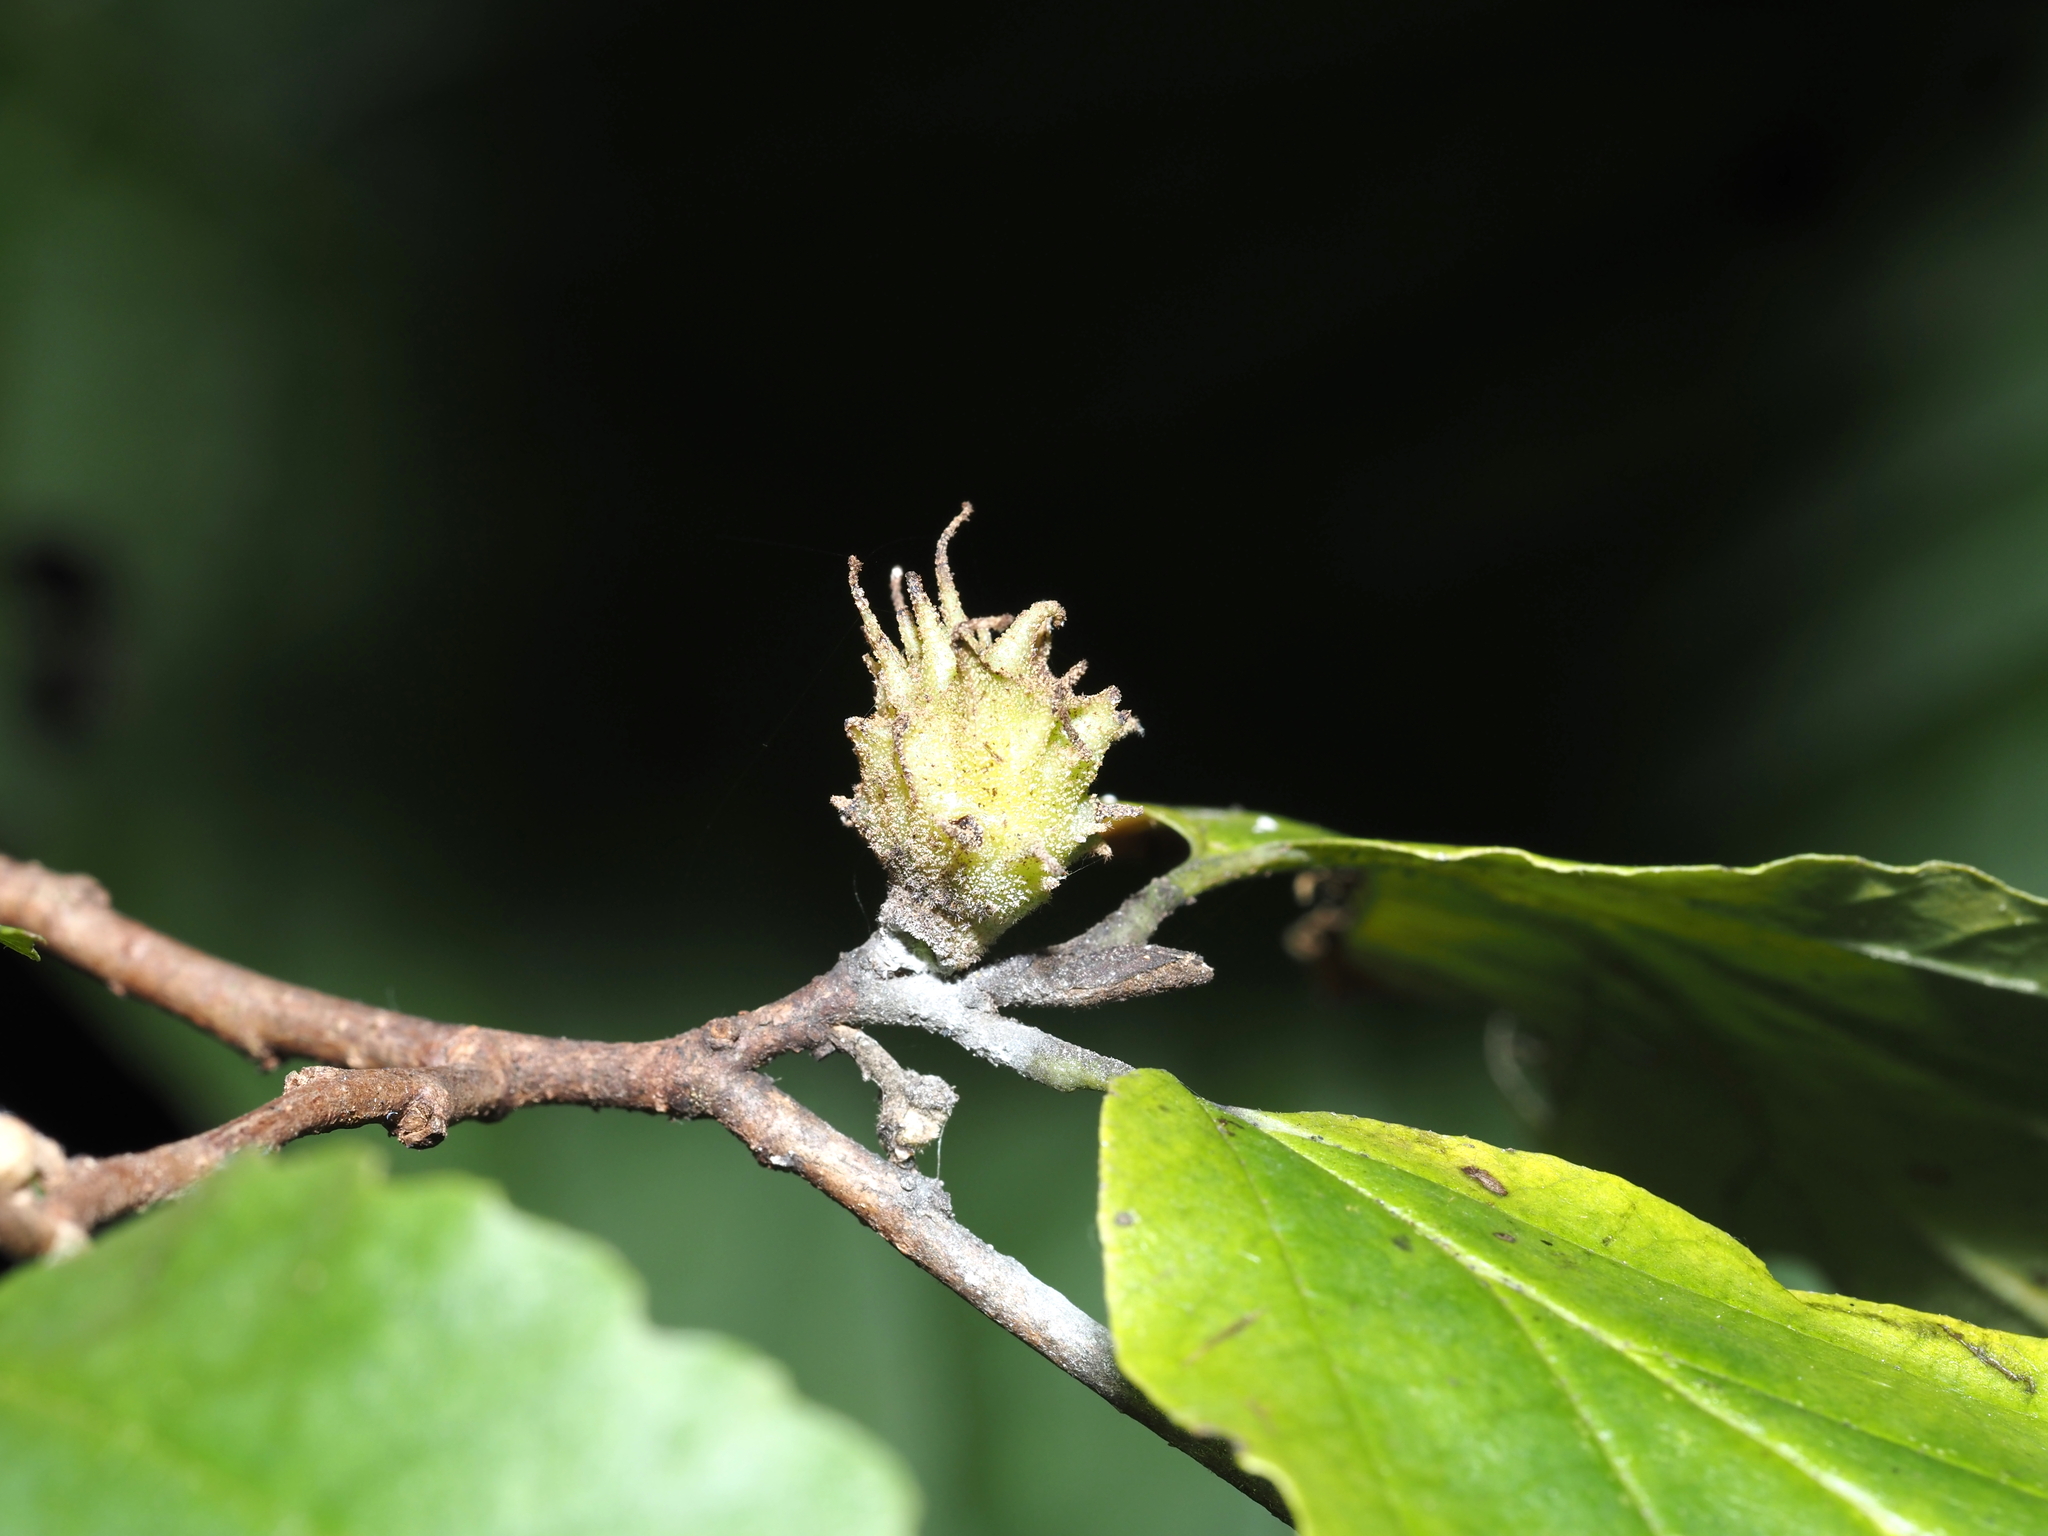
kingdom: Animalia
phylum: Arthropoda
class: Insecta
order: Hemiptera
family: Aphididae
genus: Hamamelistes
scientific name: Hamamelistes spinosus
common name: Witch hazel gall aphid
